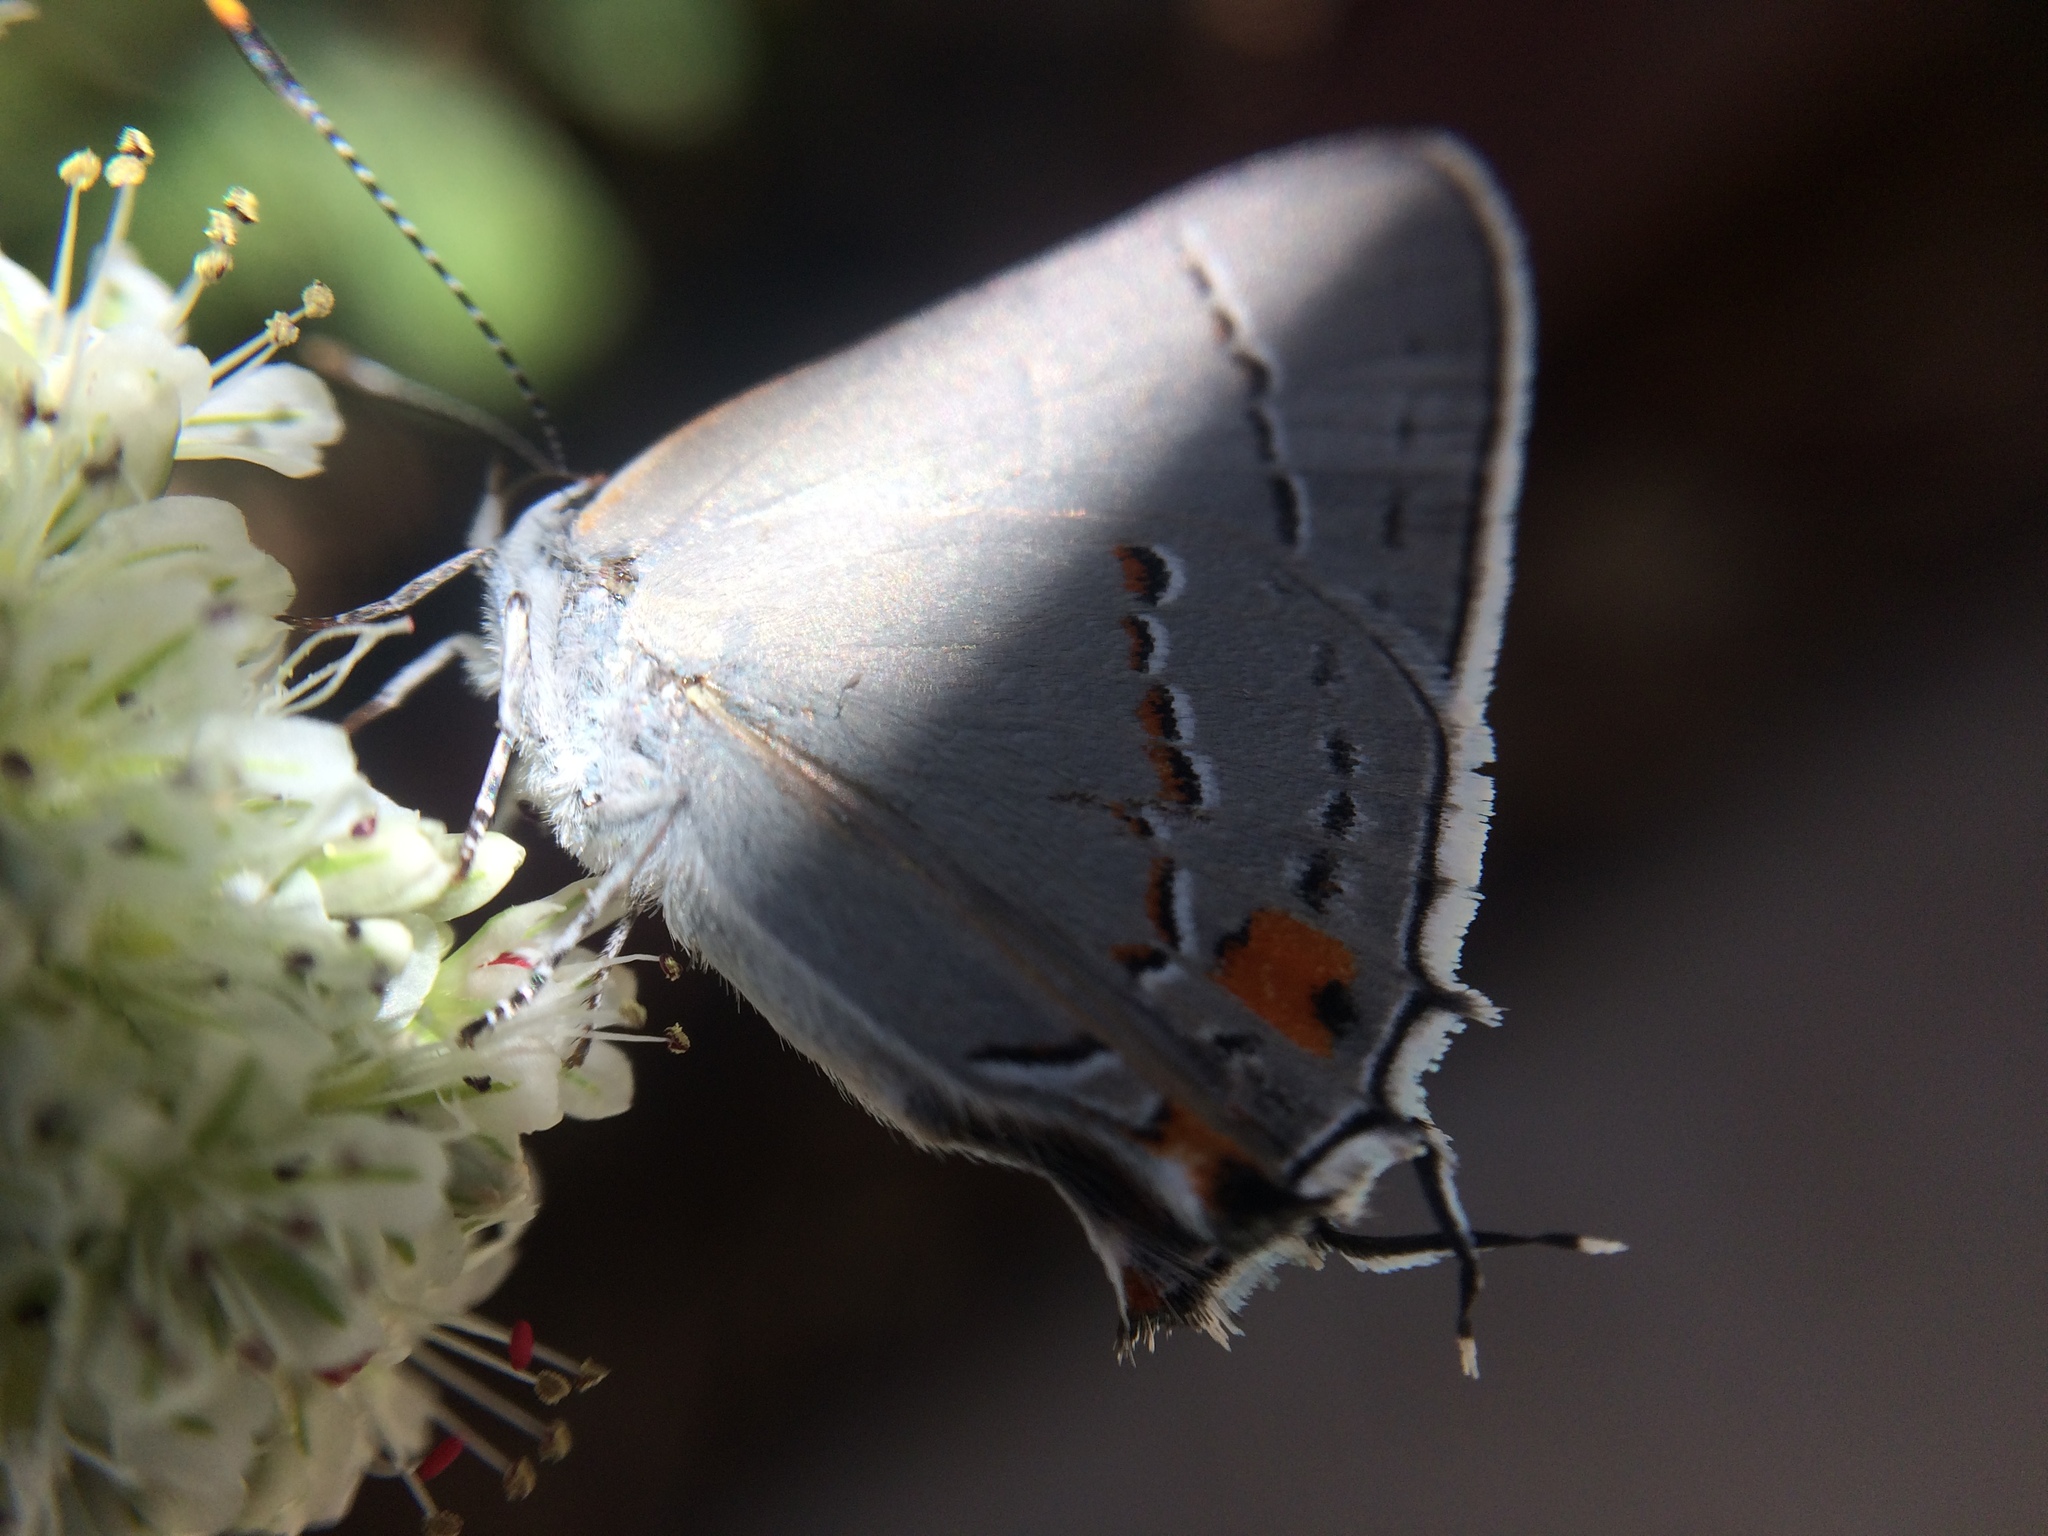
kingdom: Animalia
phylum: Arthropoda
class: Insecta
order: Lepidoptera
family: Lycaenidae
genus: Strymon
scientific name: Strymon melinus
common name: Gray hairstreak
